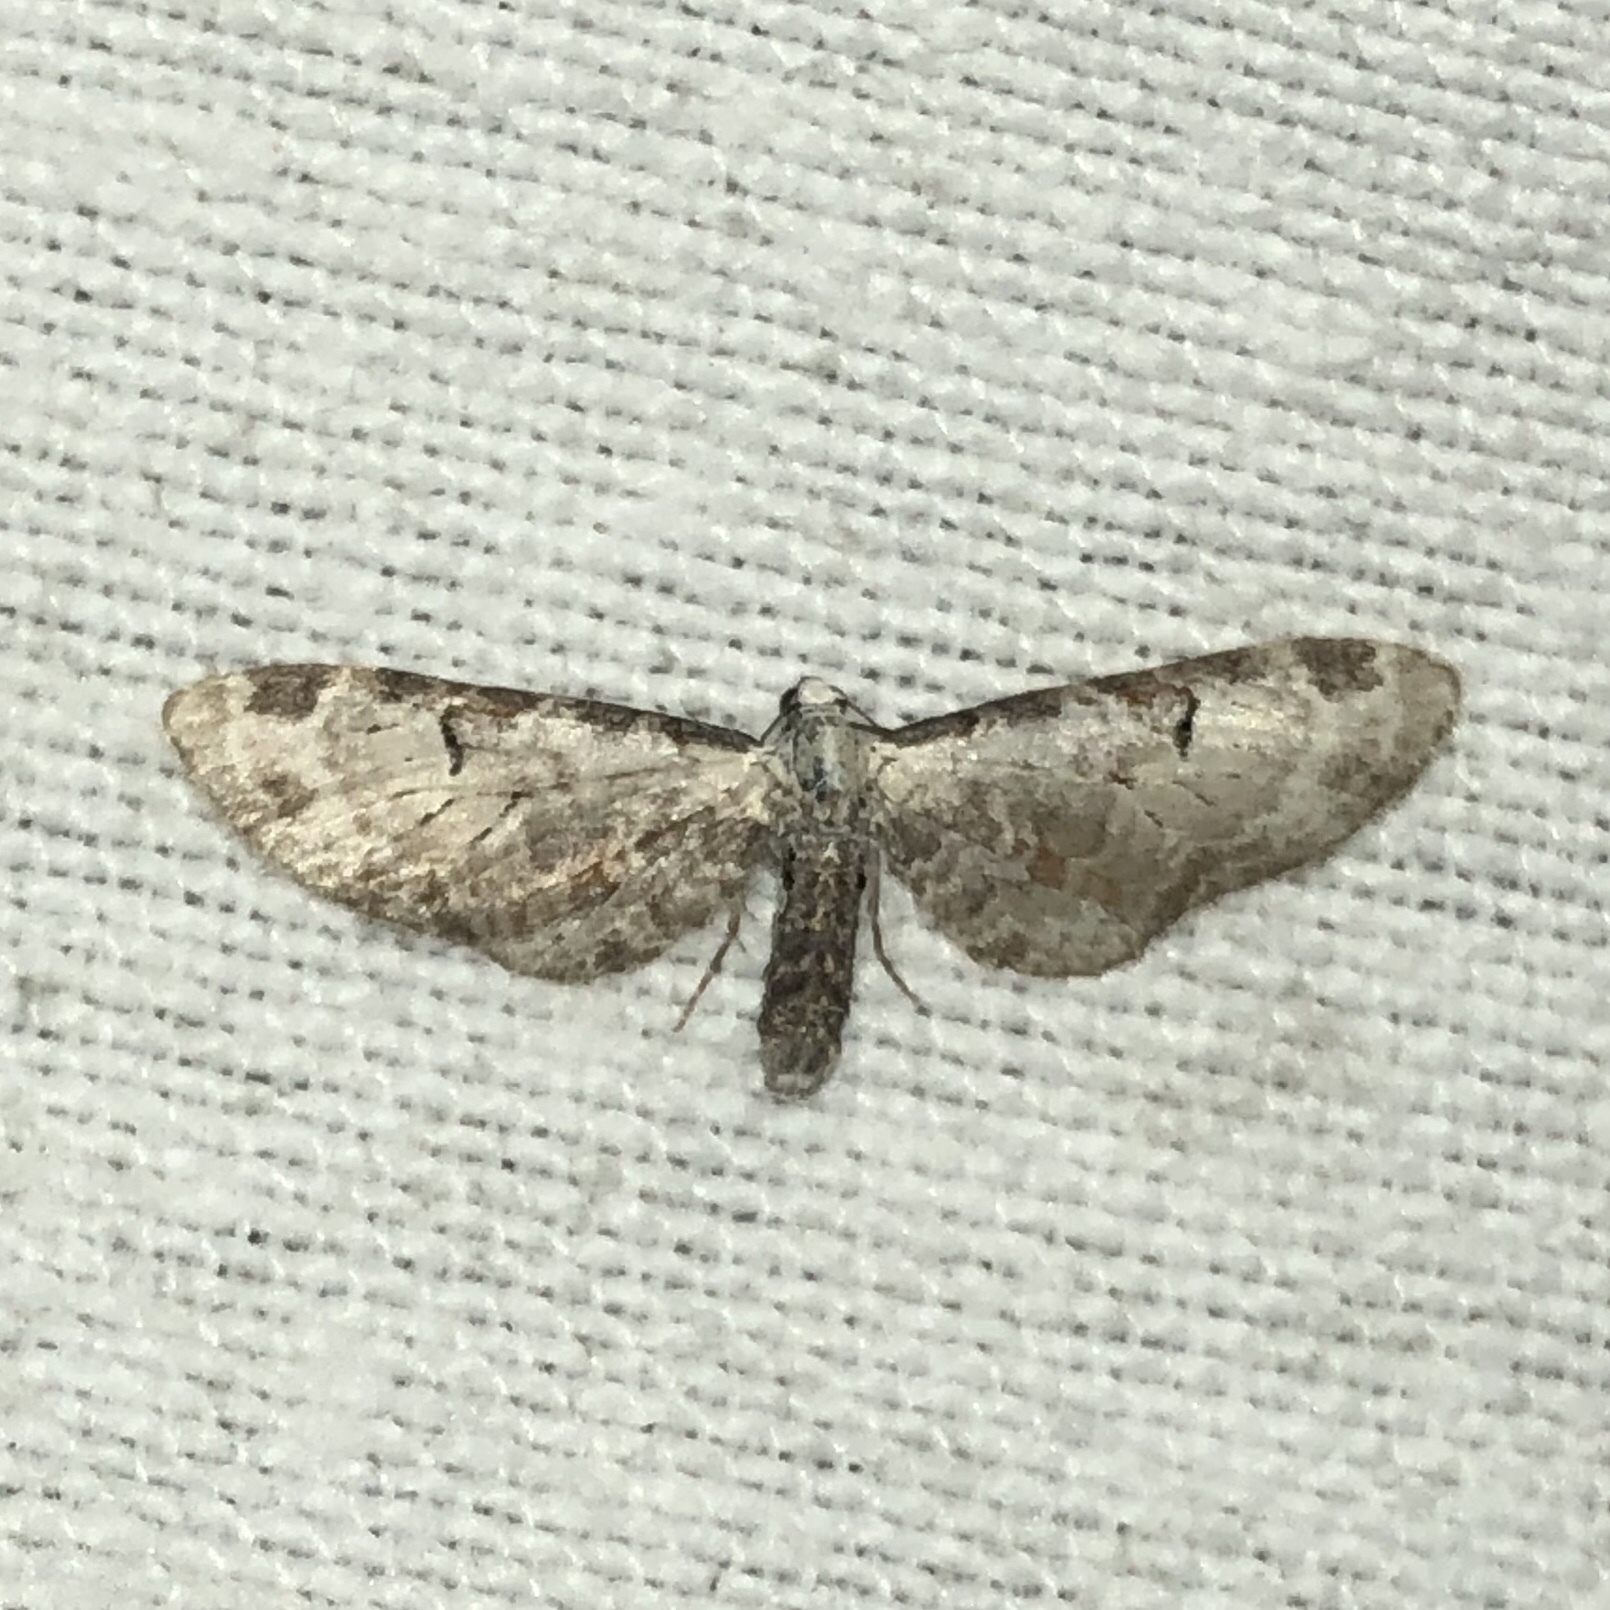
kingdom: Animalia
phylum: Arthropoda
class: Insecta
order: Lepidoptera
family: Geometridae
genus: Eupithecia
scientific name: Eupithecia ravocostaliata
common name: Great varigated pug
